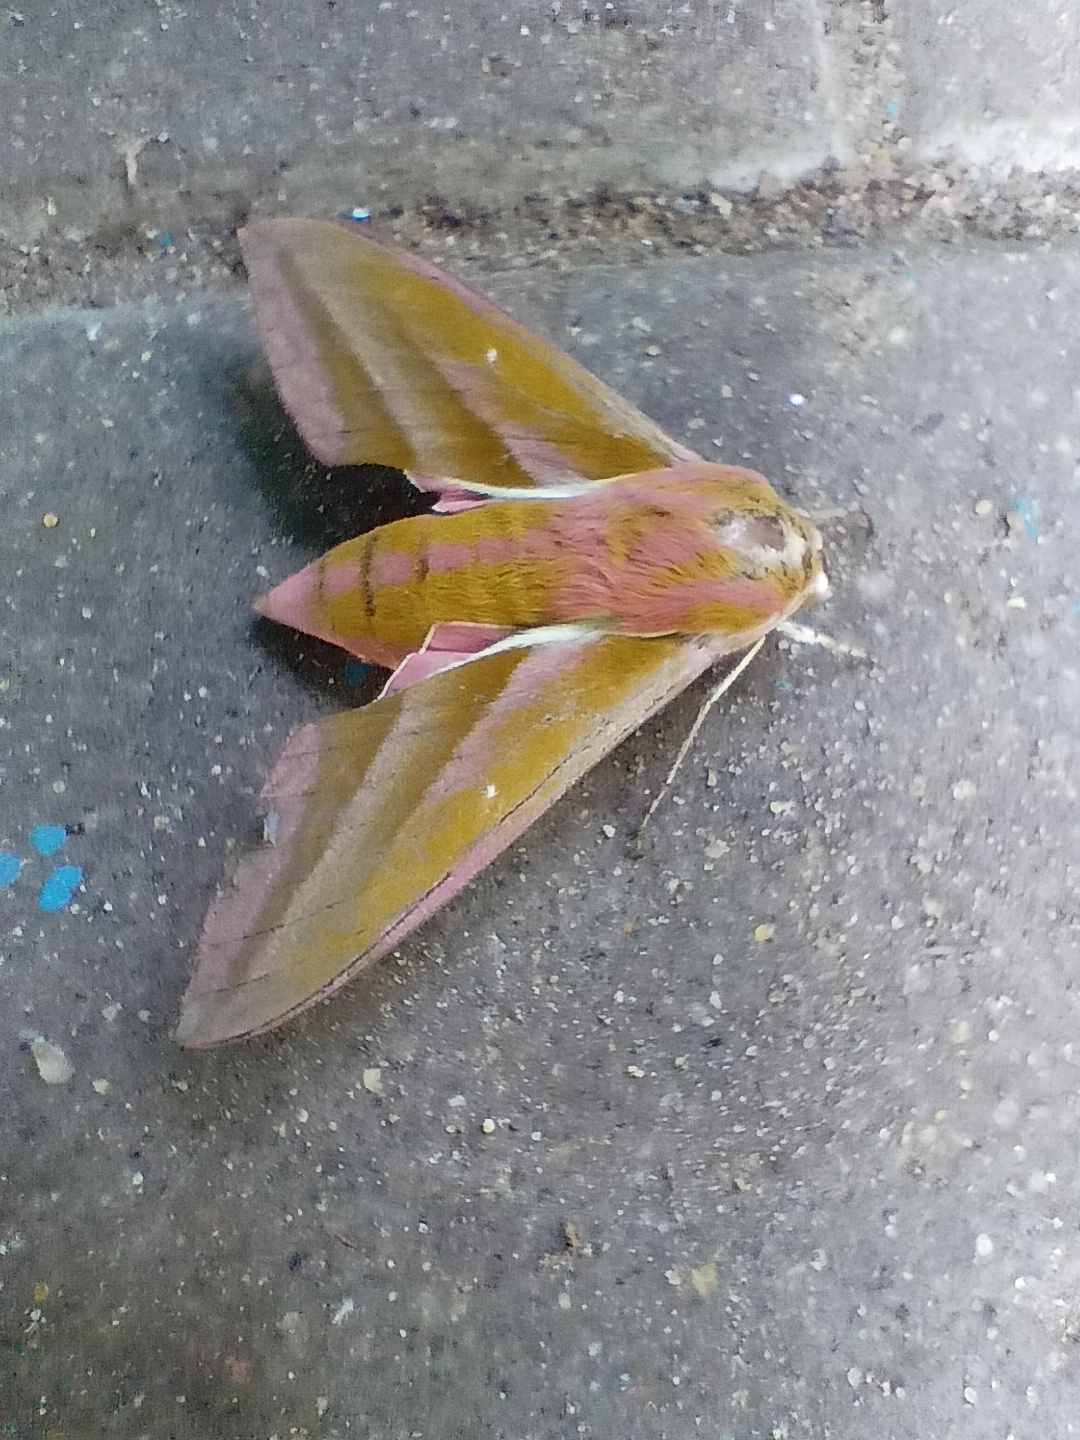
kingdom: Animalia
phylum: Arthropoda
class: Insecta
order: Lepidoptera
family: Sphingidae
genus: Deilephila
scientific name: Deilephila elpenor
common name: Elephant hawk-moth
